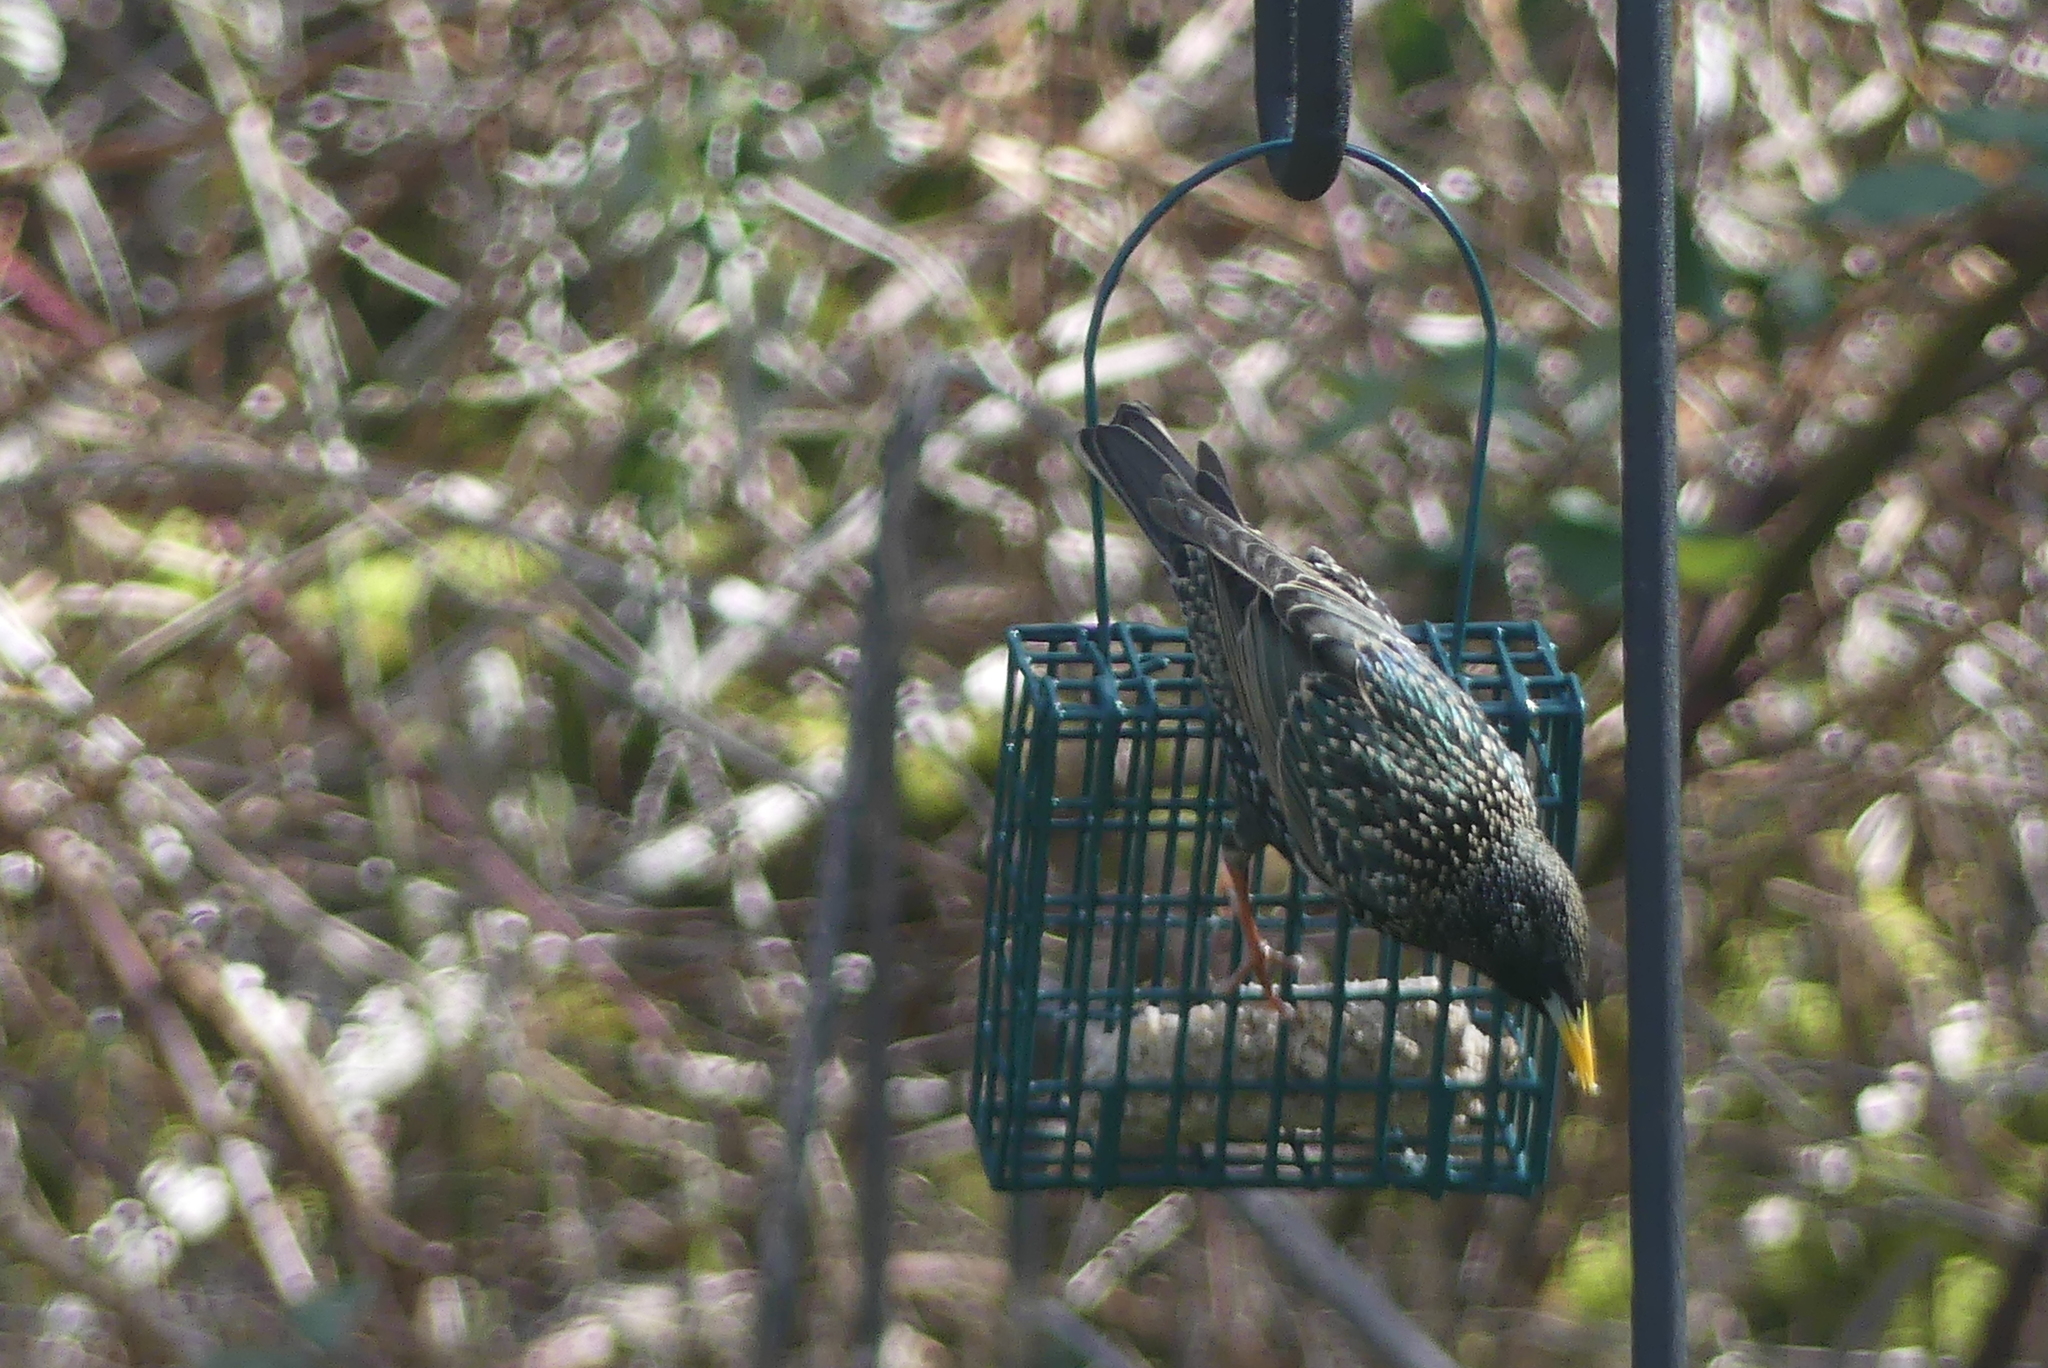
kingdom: Animalia
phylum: Chordata
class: Aves
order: Passeriformes
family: Sturnidae
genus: Sturnus
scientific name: Sturnus vulgaris
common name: Common starling
